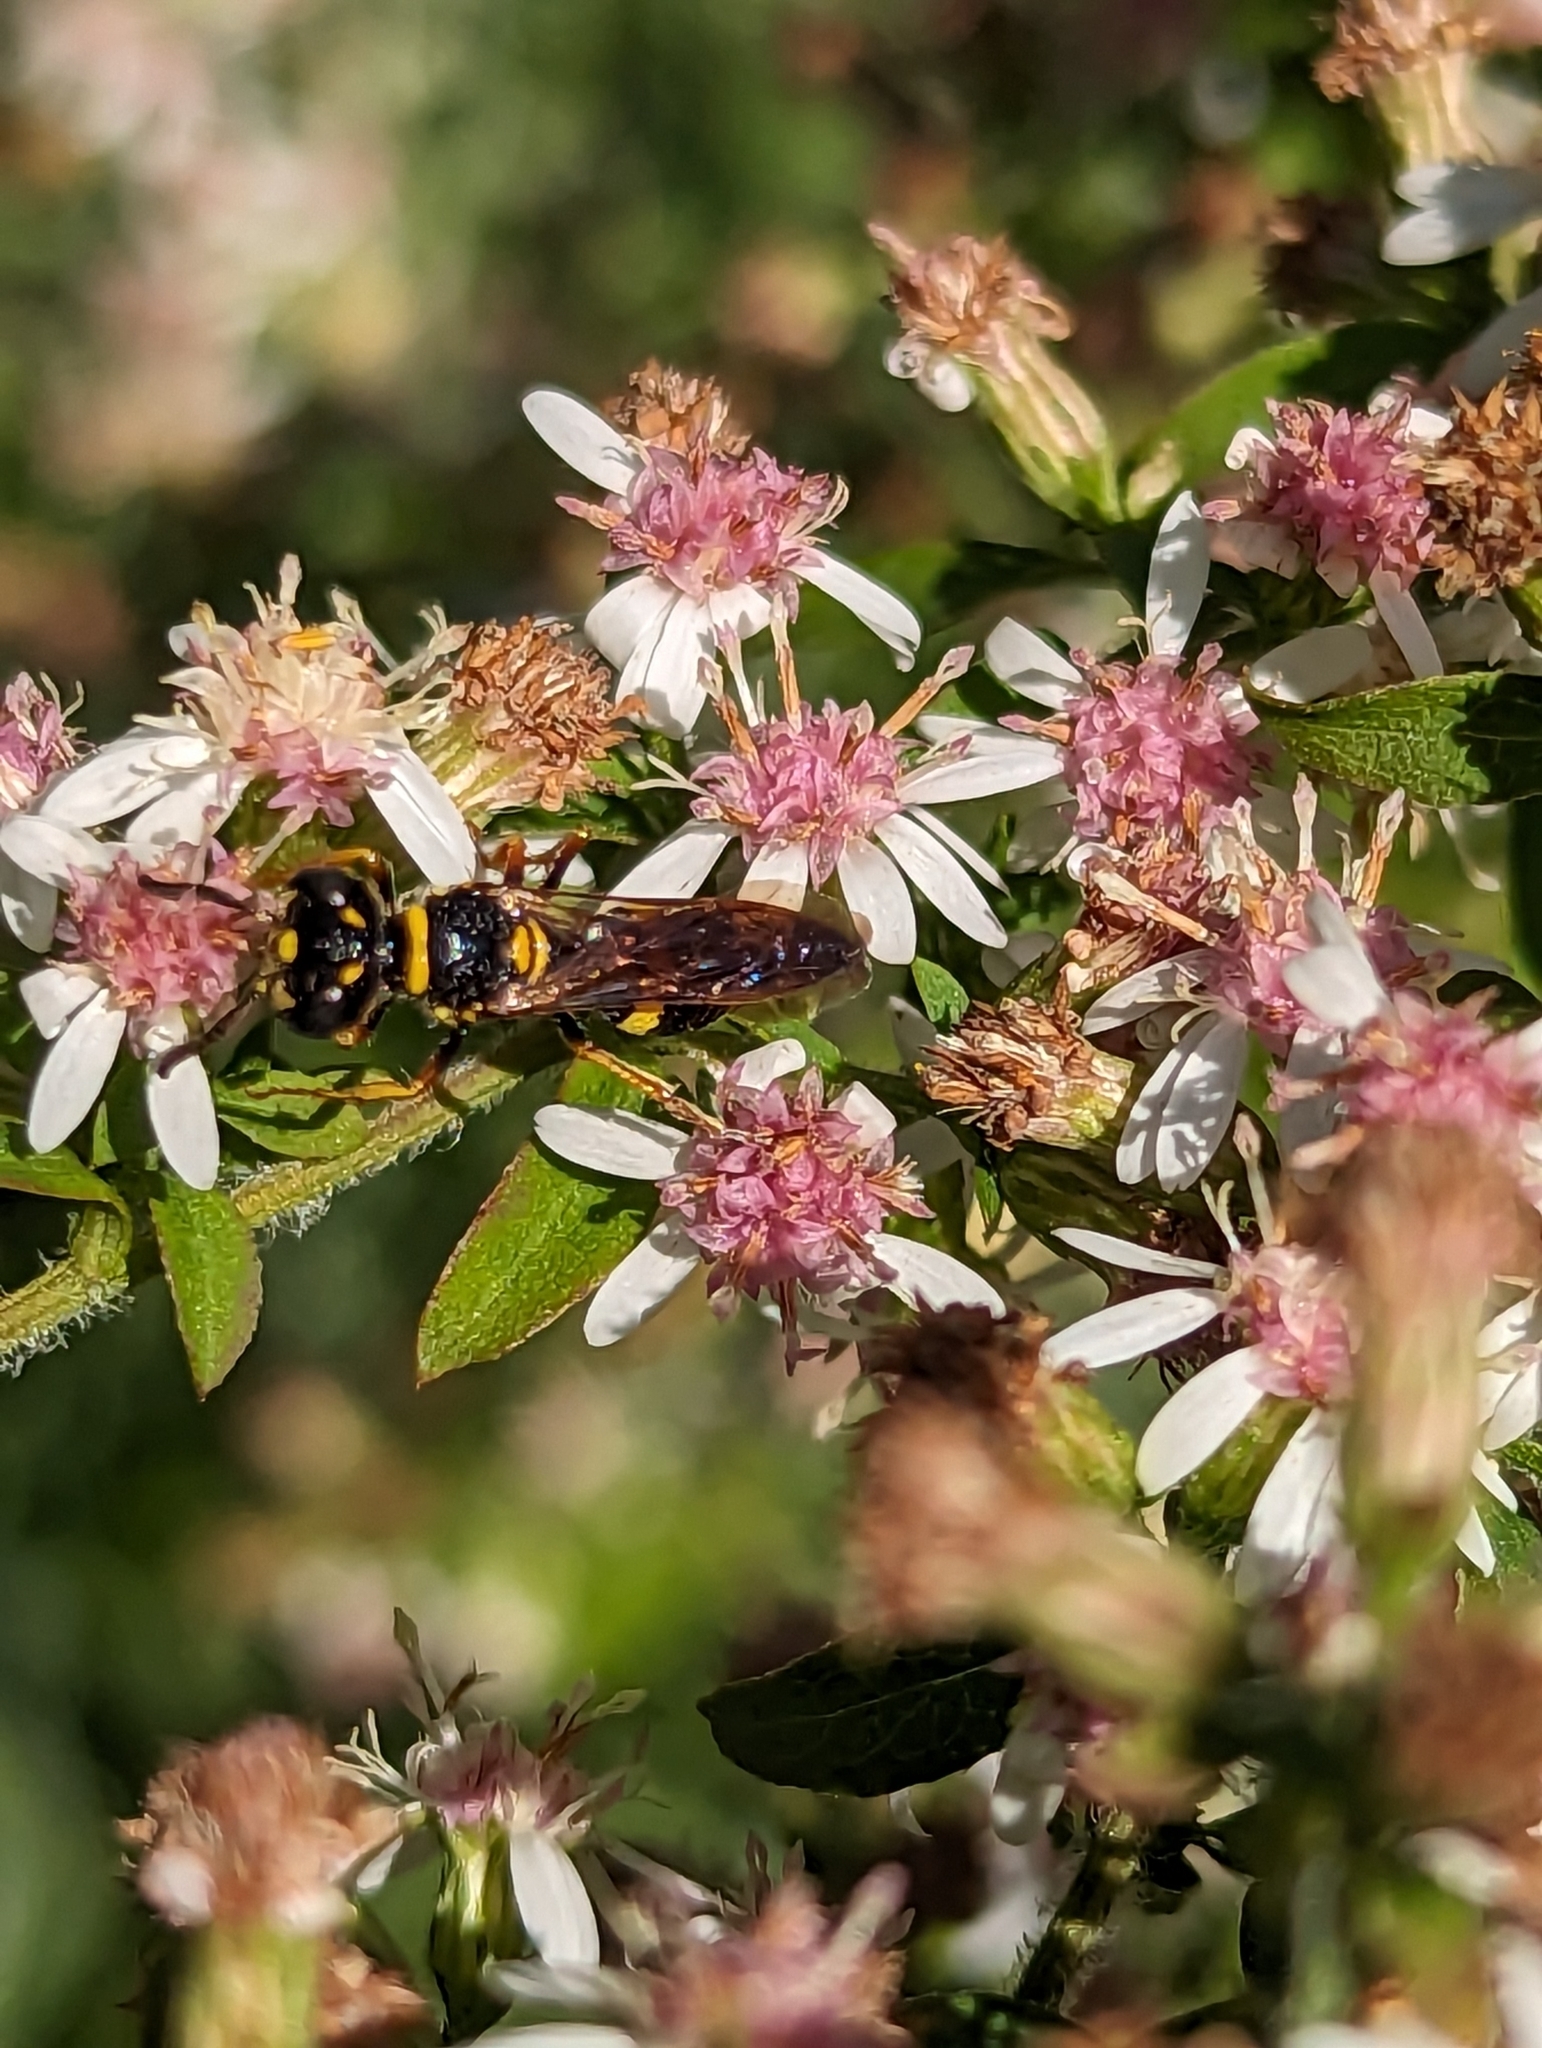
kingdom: Animalia
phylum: Arthropoda
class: Insecta
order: Hymenoptera
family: Crabronidae
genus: Philanthus
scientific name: Philanthus gibbosus
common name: Humped beewolf
